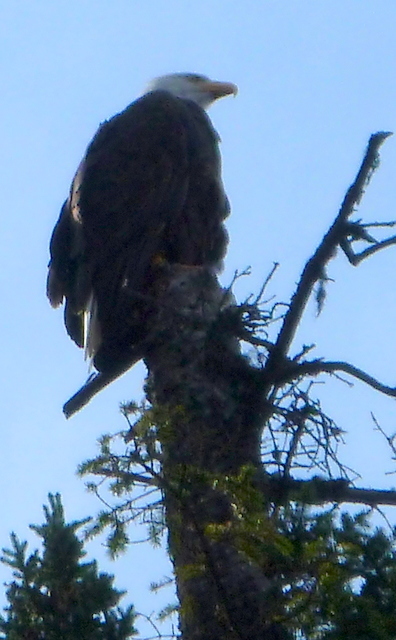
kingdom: Animalia
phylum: Chordata
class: Aves
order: Accipitriformes
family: Accipitridae
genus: Haliaeetus
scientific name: Haliaeetus leucocephalus
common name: Bald eagle
